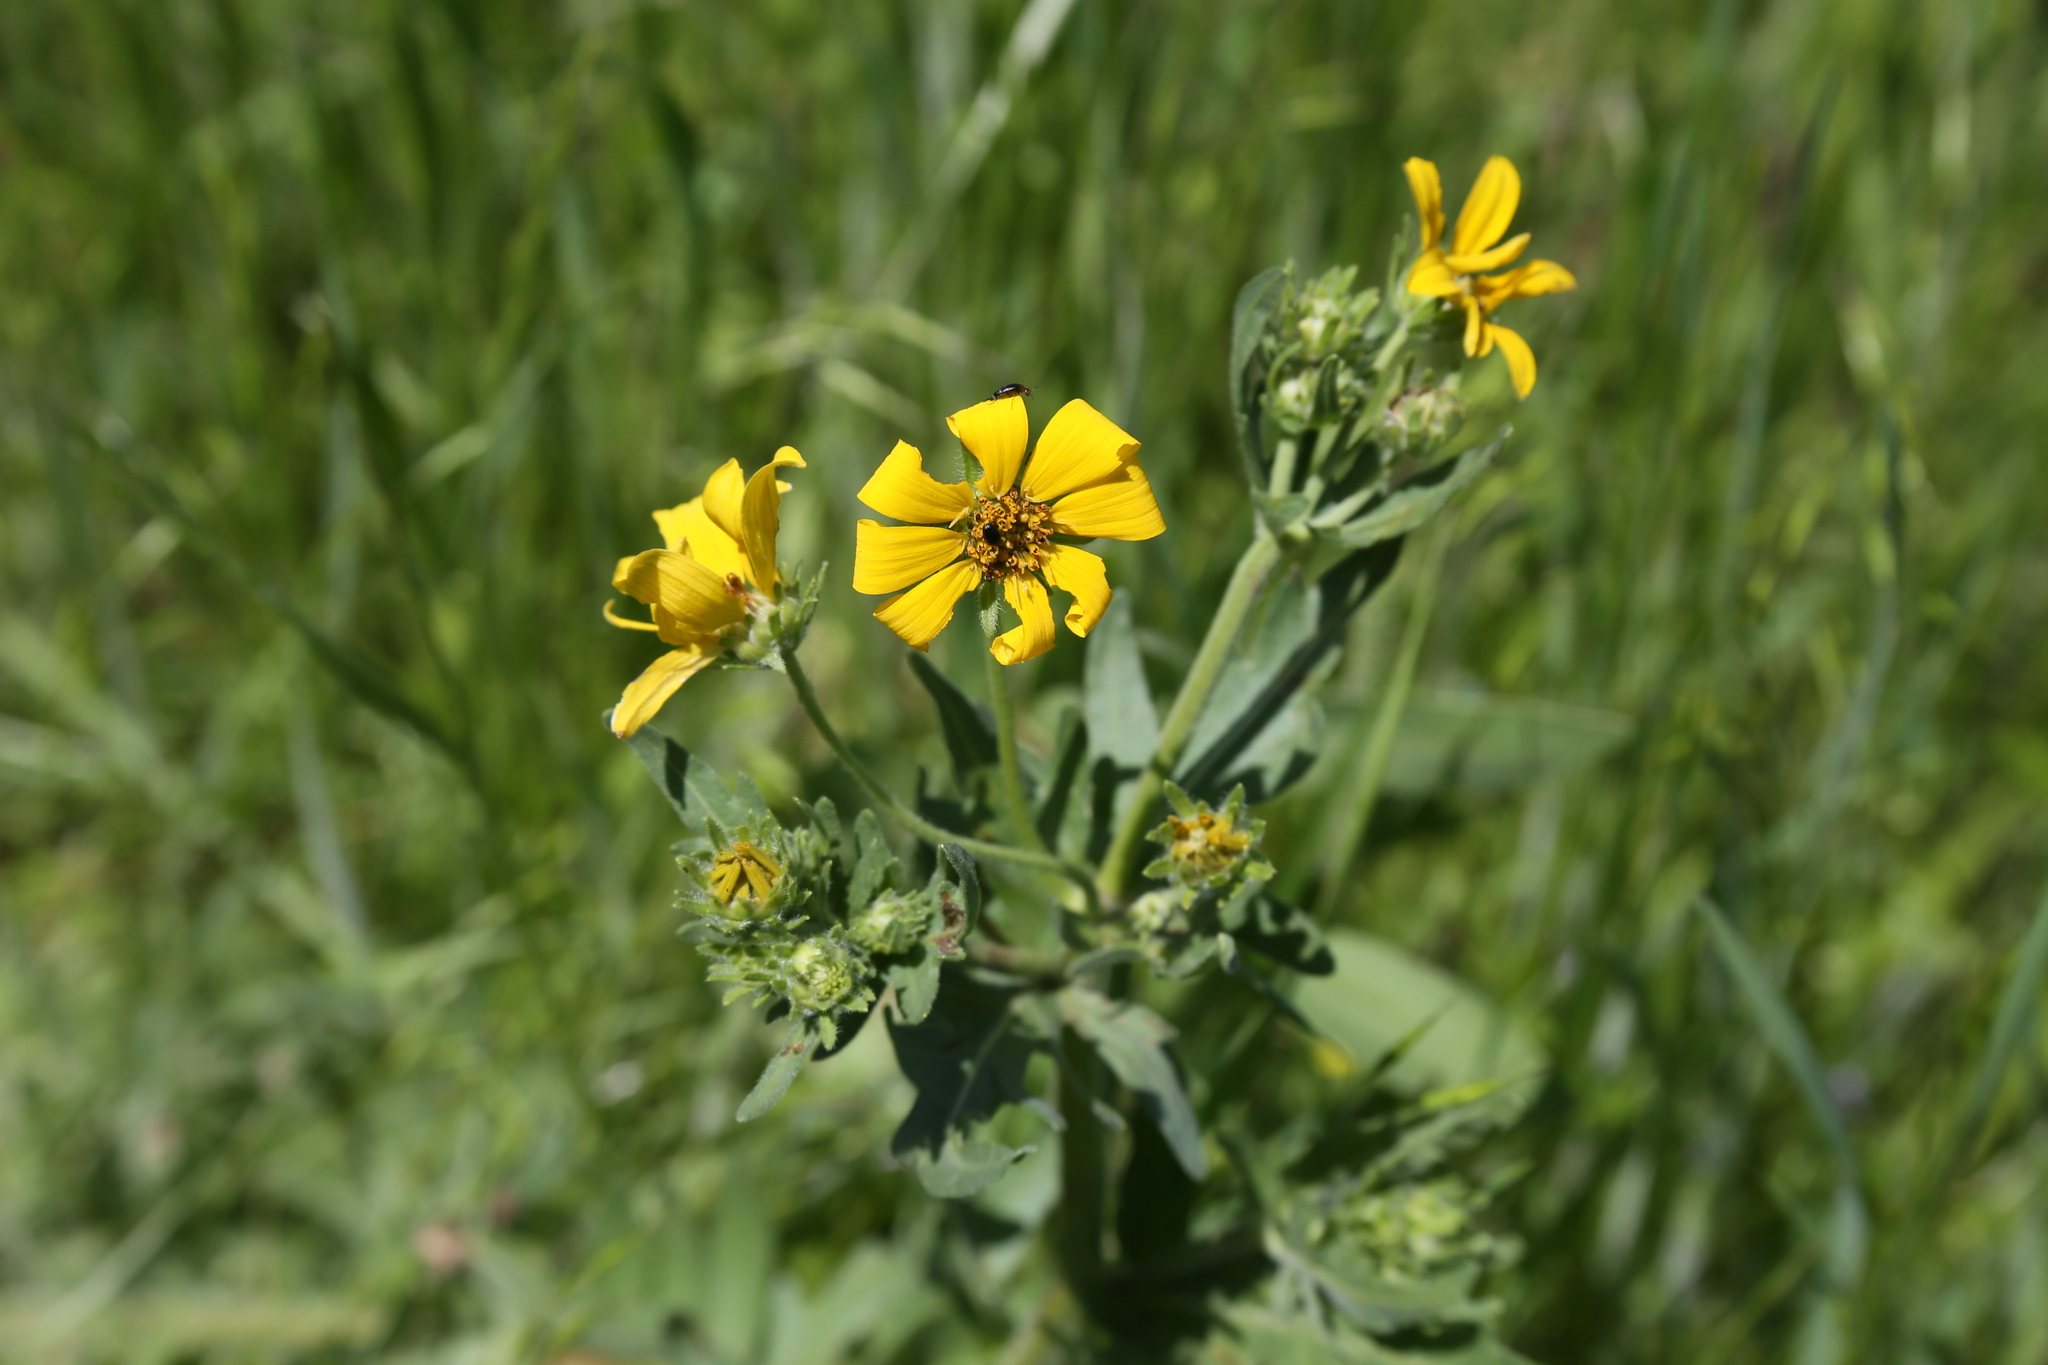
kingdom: Plantae
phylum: Tracheophyta
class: Magnoliopsida
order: Asterales
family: Asteraceae
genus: Engelmannia
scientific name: Engelmannia peristenia
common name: Engelmann's daisy
